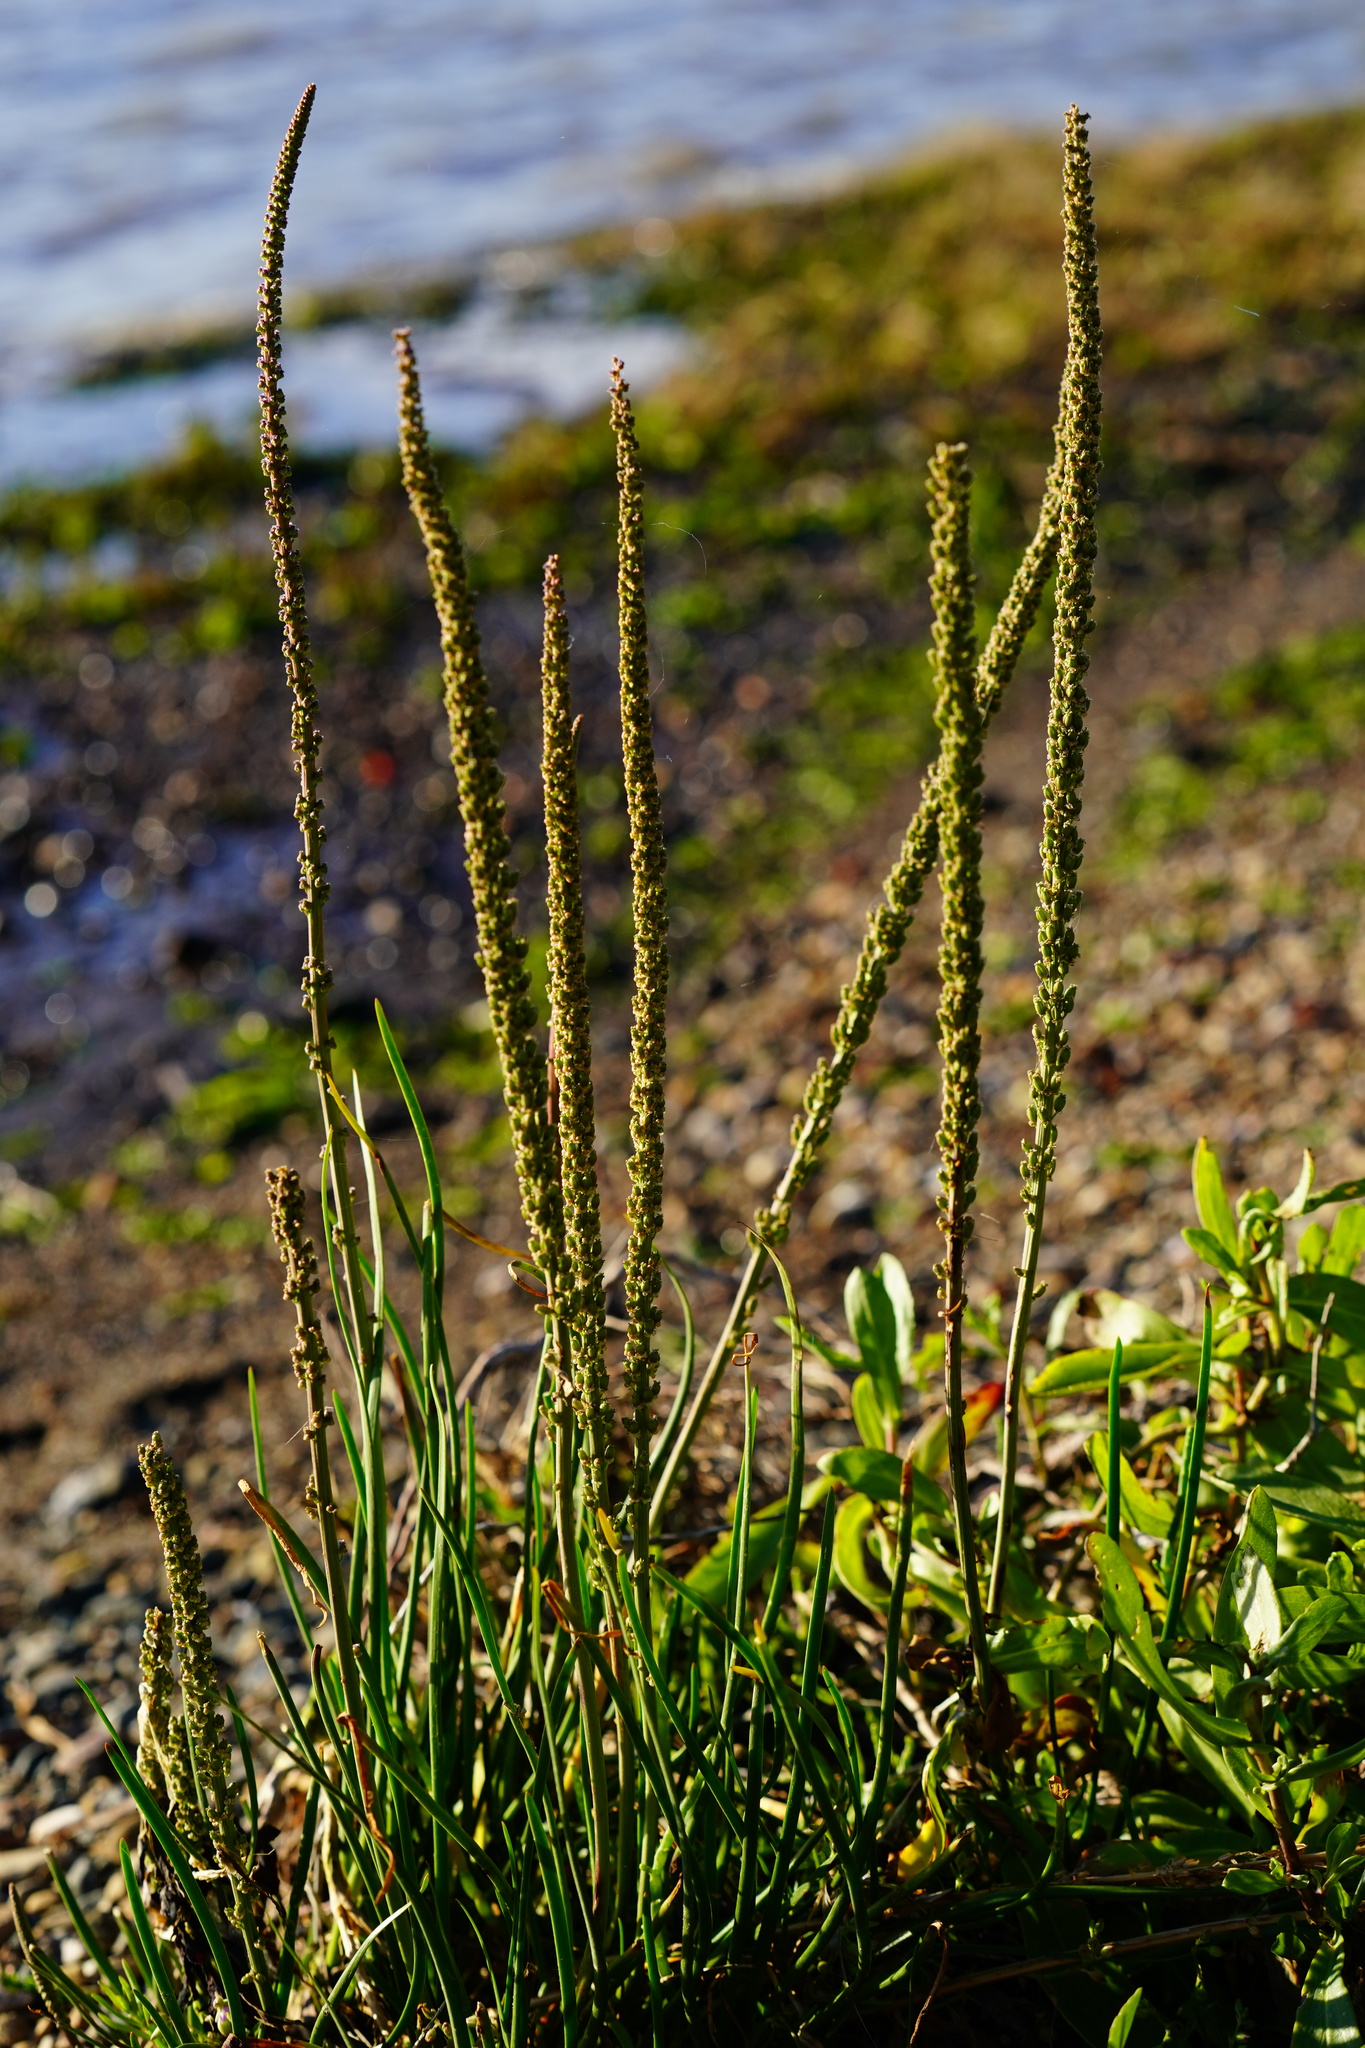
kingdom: Plantae
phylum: Tracheophyta
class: Liliopsida
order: Alismatales
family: Juncaginaceae
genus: Triglochin
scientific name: Triglochin maritima
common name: Sea arrowgrass
